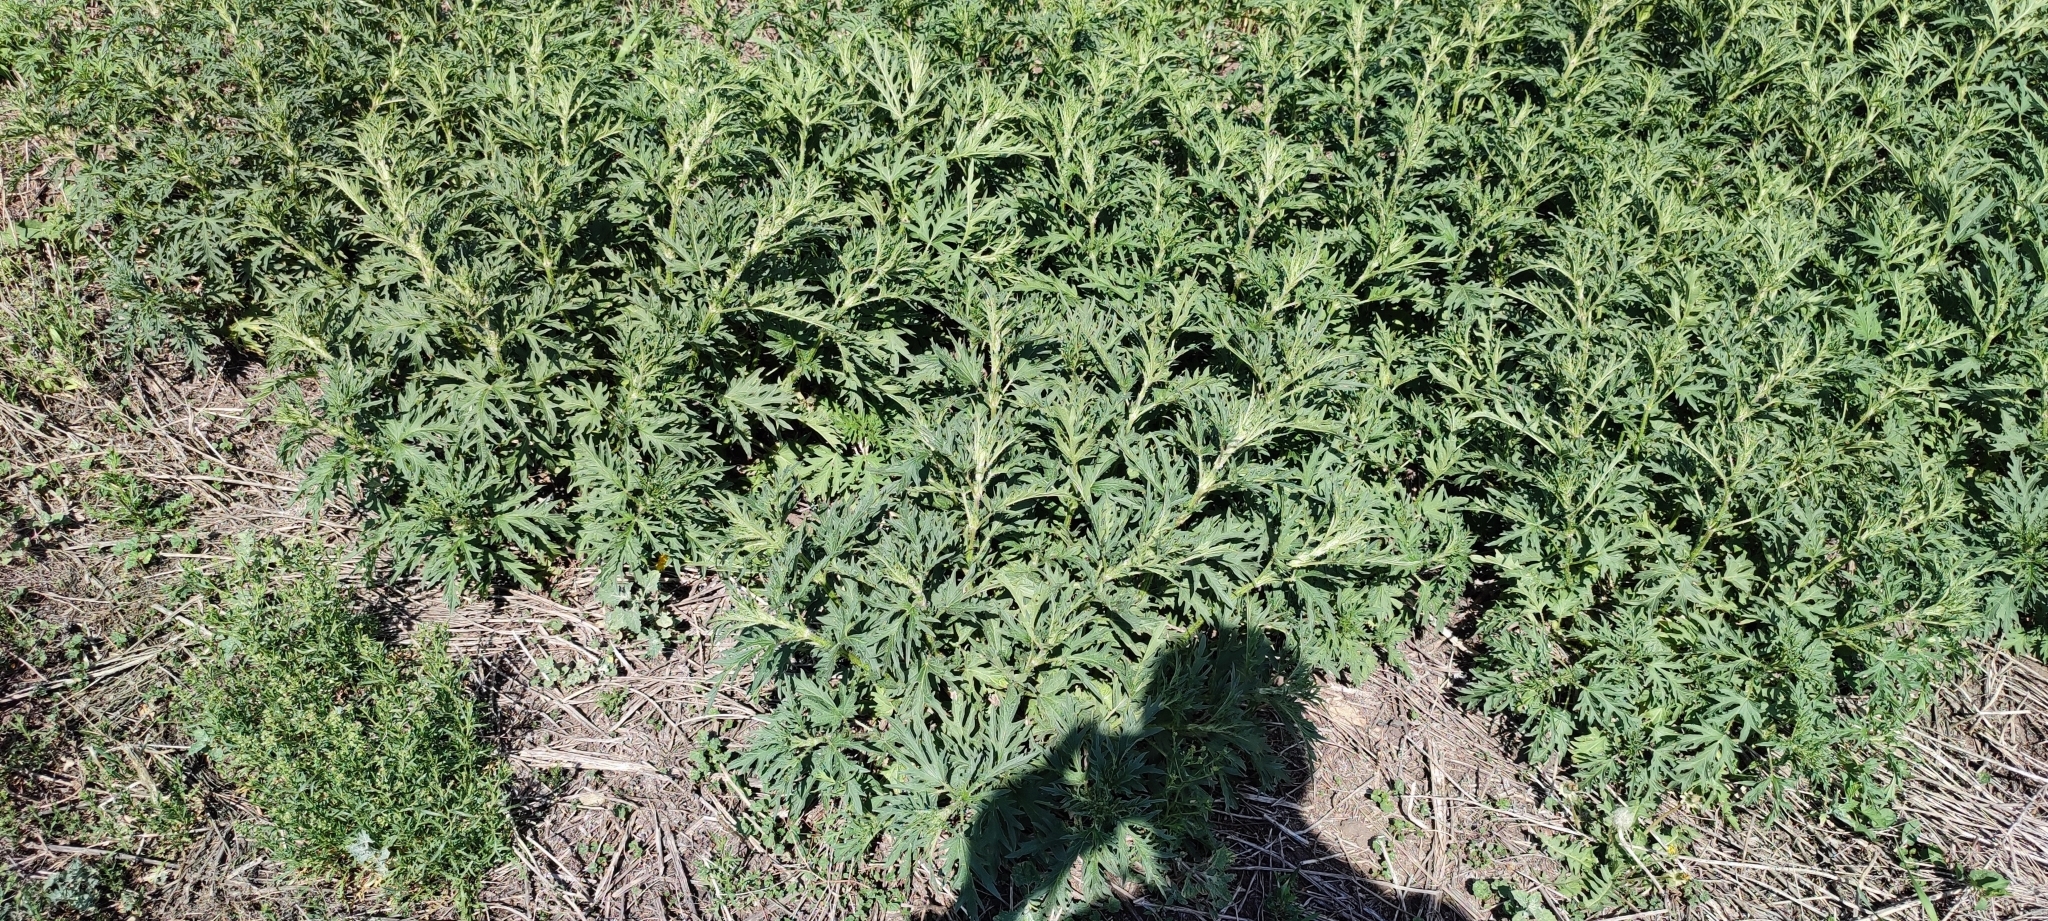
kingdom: Plantae
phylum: Tracheophyta
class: Magnoliopsida
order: Rosales
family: Urticaceae
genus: Urtica
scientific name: Urtica cannabina
